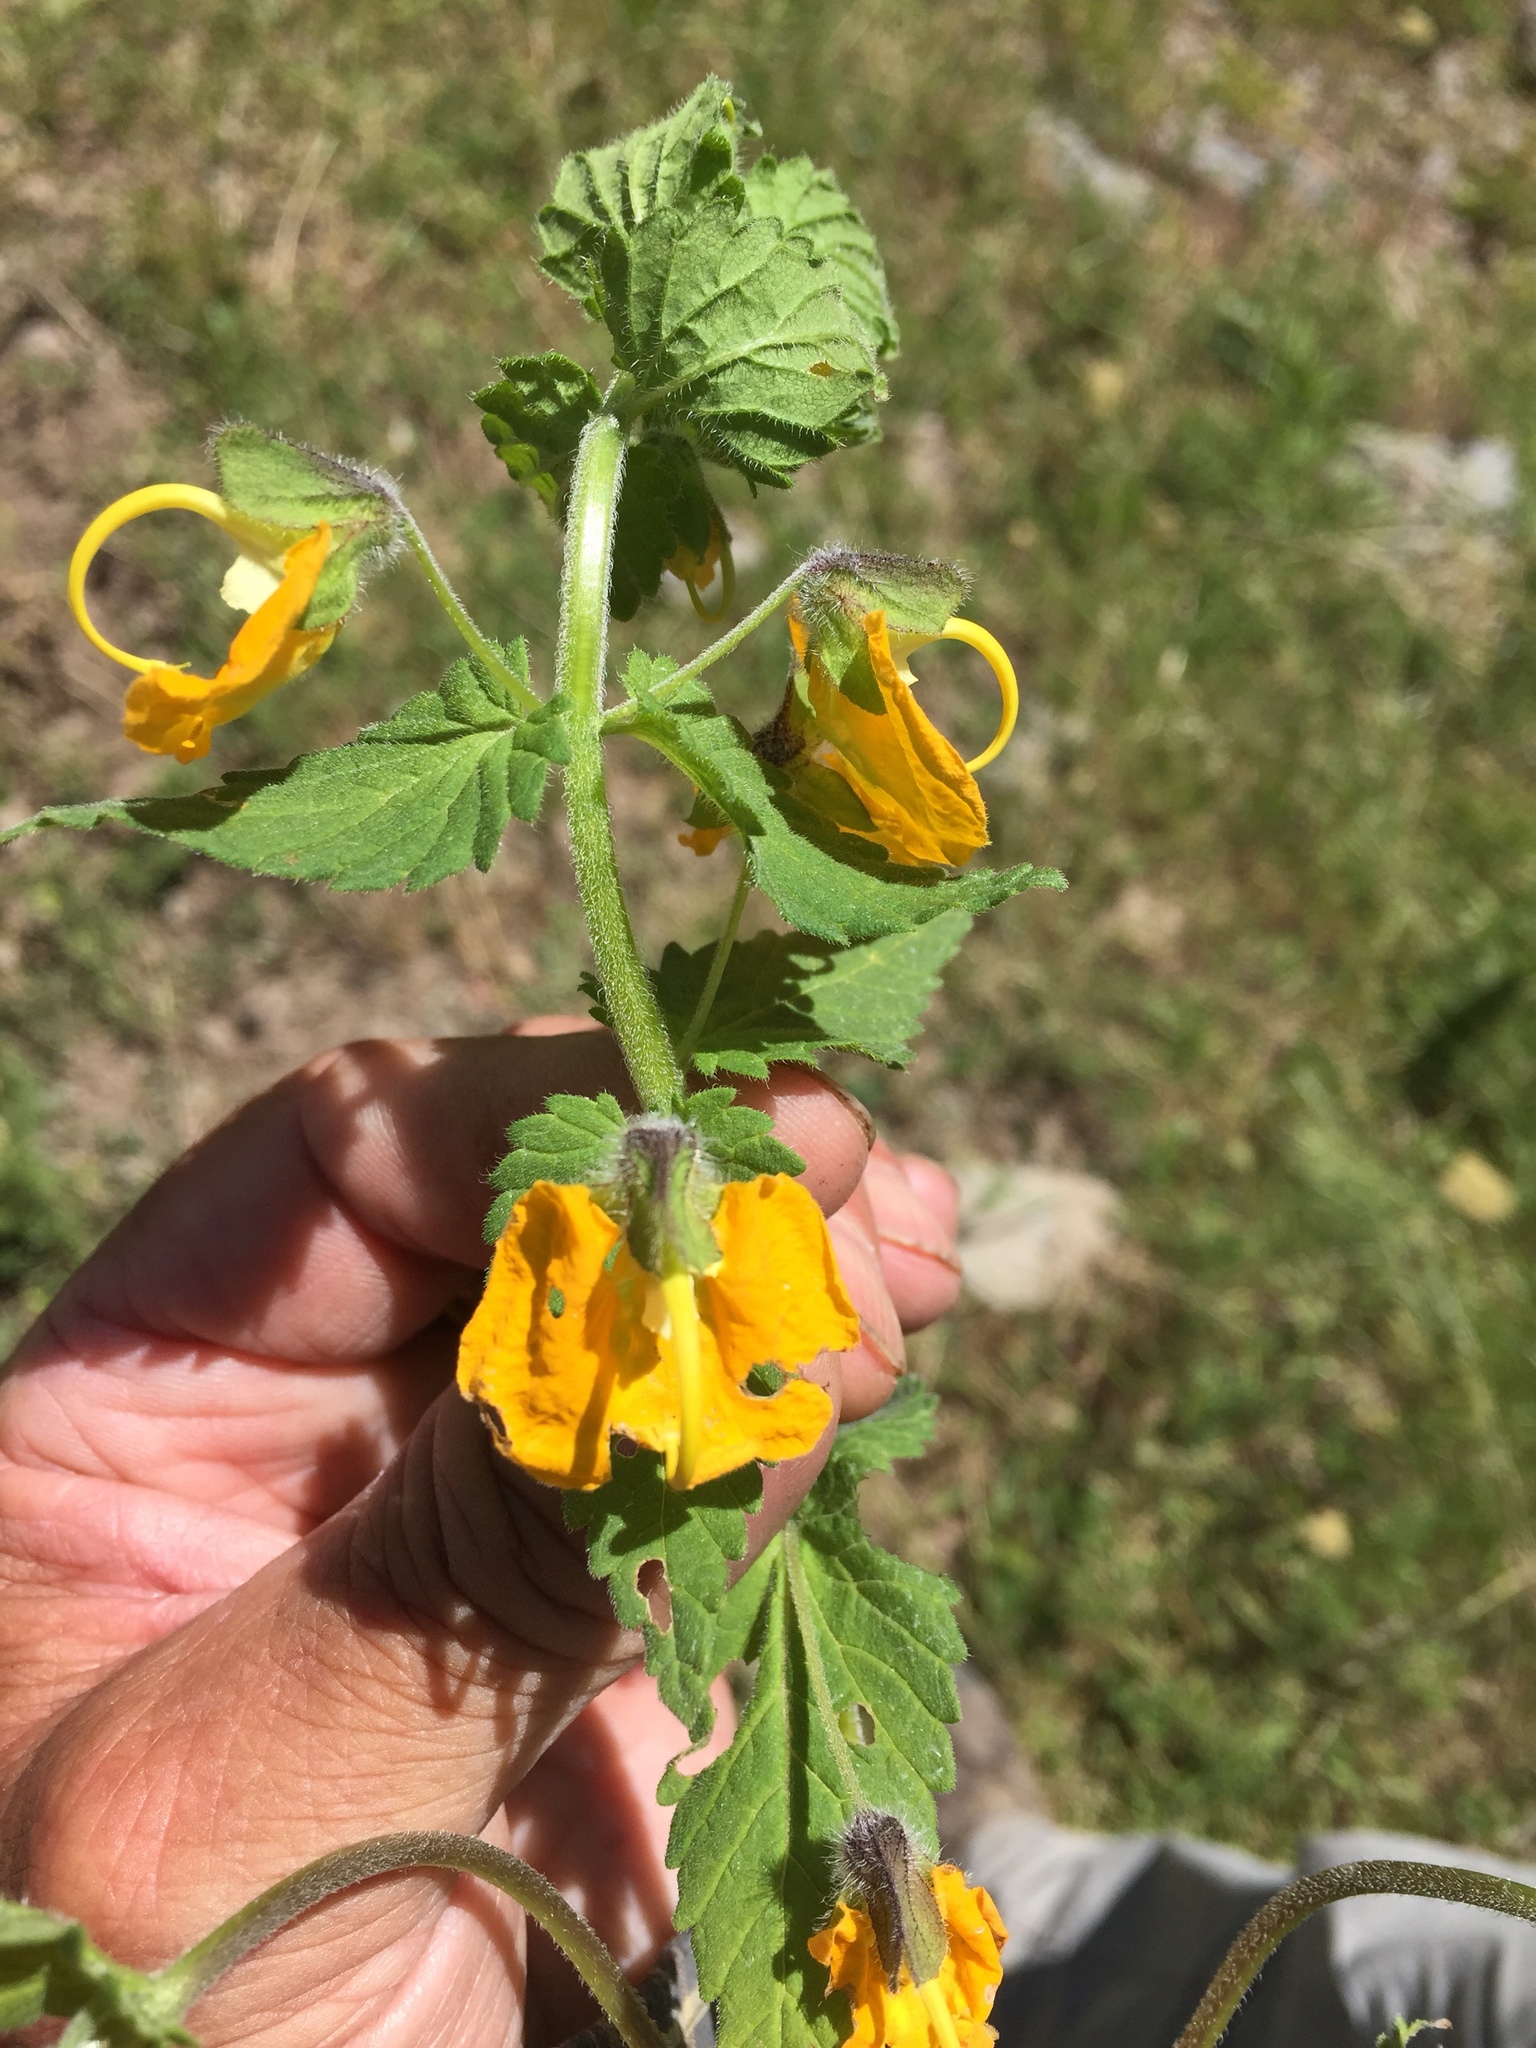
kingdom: Plantae
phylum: Tracheophyta
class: Magnoliopsida
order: Lamiales
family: Orobanchaceae
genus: Rhynchocorys
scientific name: Rhynchocorys orientalis
